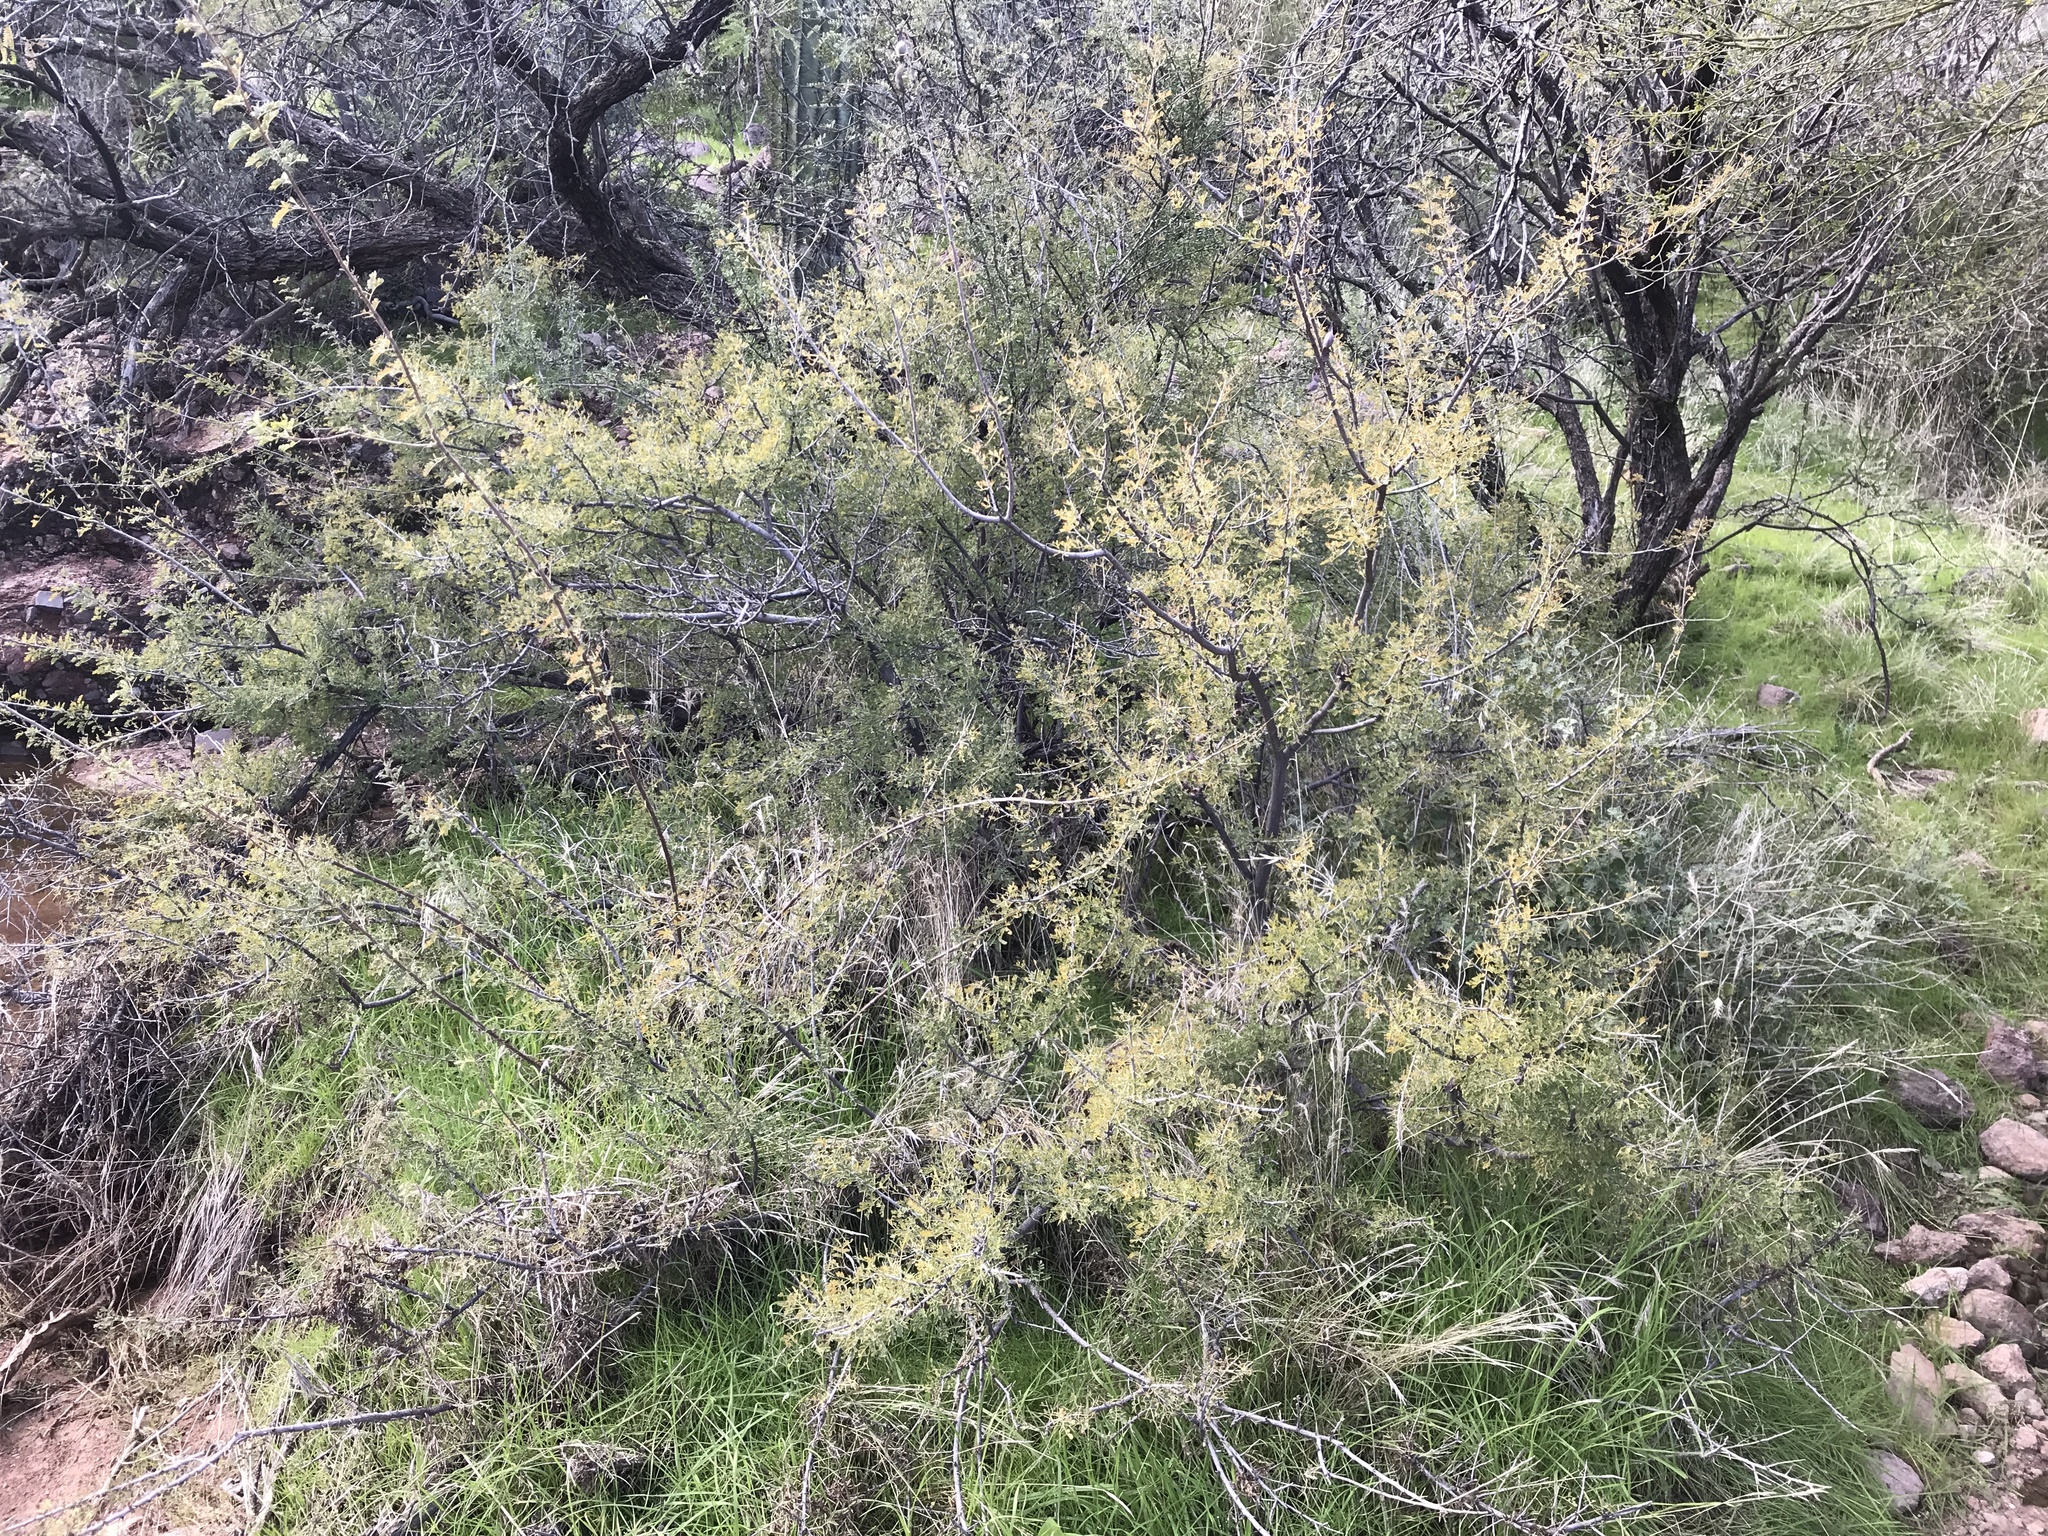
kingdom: Plantae
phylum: Tracheophyta
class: Magnoliopsida
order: Fabales
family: Fabaceae
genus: Senegalia
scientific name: Senegalia greggii
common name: Texas-mimosa
